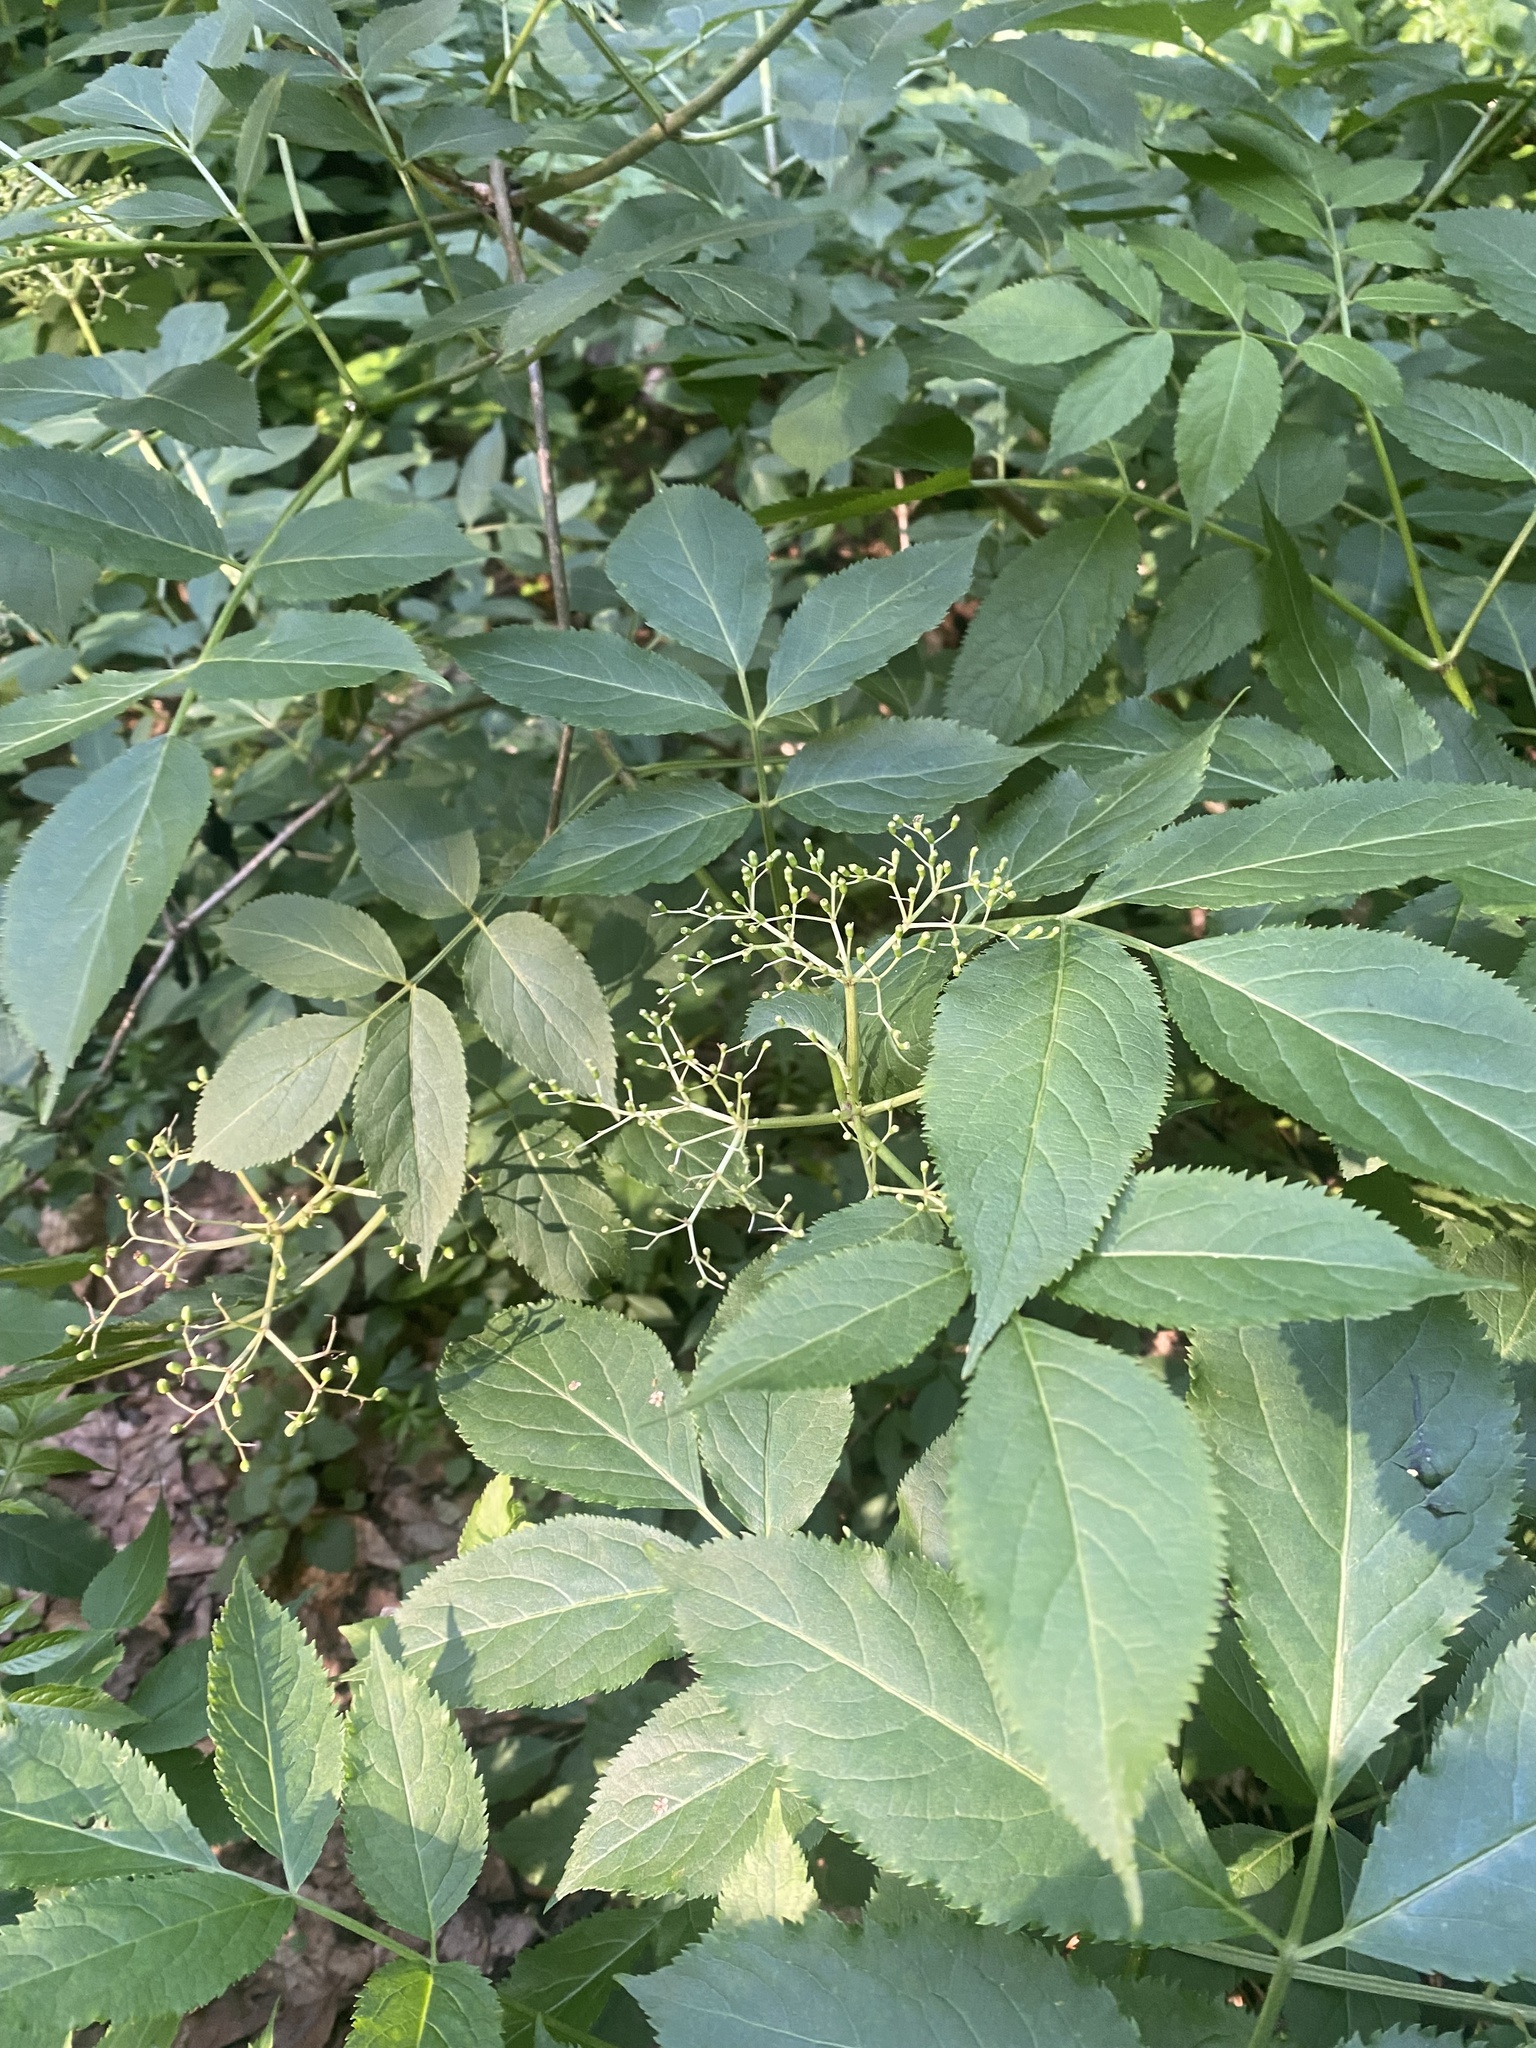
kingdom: Plantae
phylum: Tracheophyta
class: Magnoliopsida
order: Dipsacales
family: Viburnaceae
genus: Sambucus
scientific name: Sambucus nigra
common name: Elder
